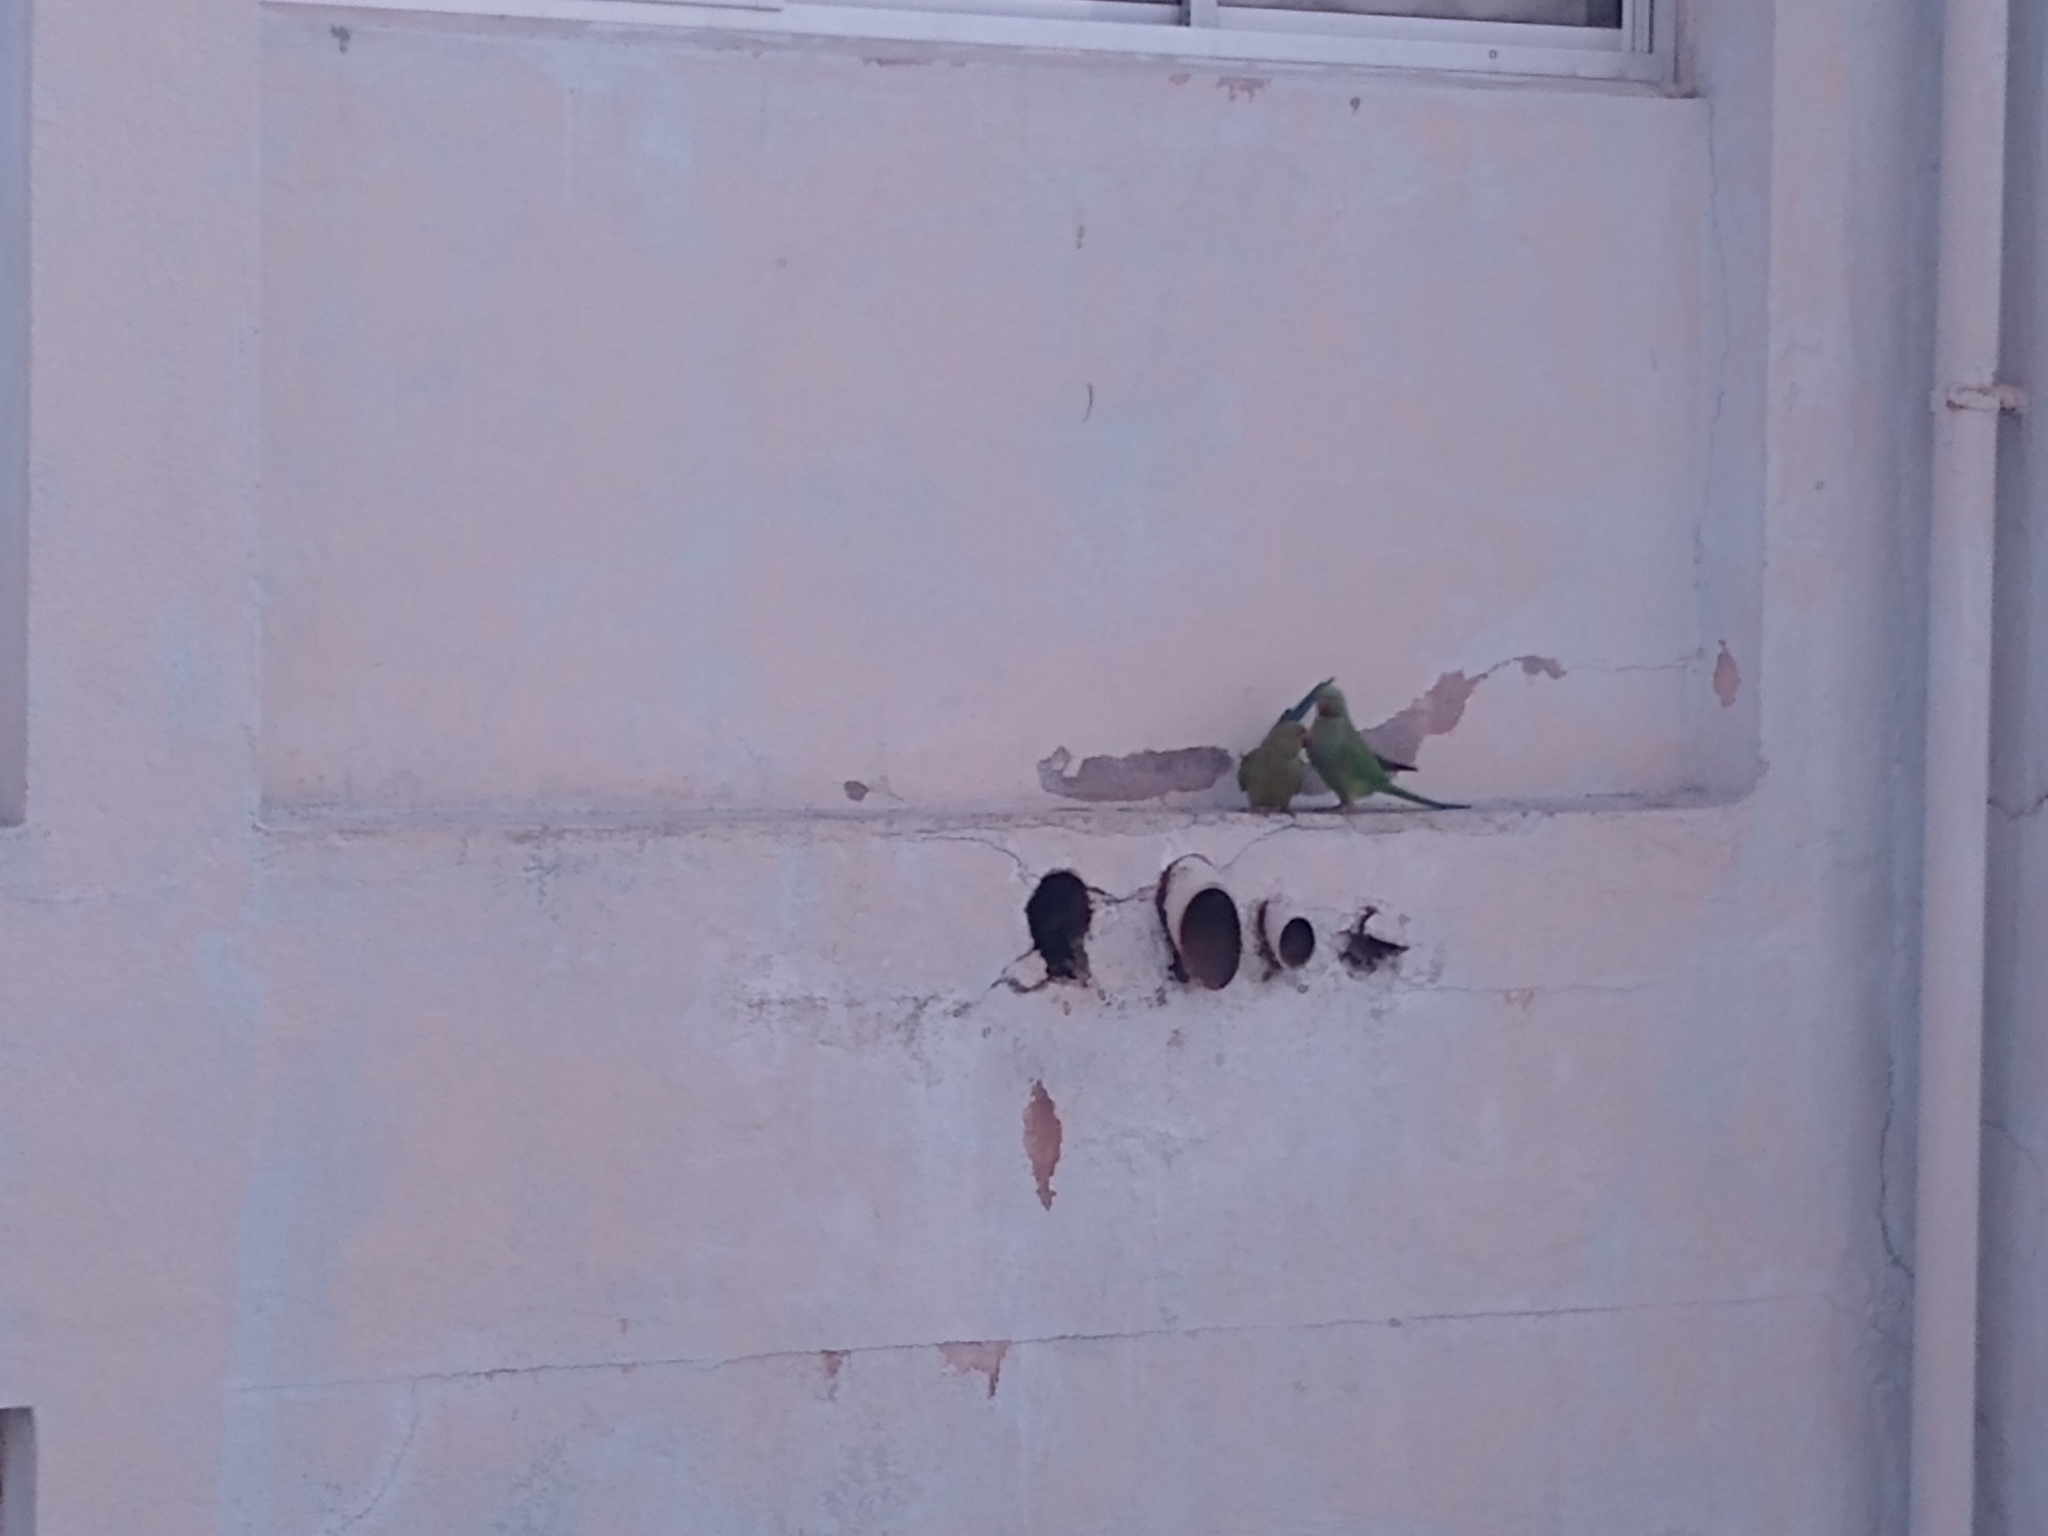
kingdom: Animalia
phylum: Chordata
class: Aves
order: Psittaciformes
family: Psittacidae
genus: Psittacula
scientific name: Psittacula krameri
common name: Rose-ringed parakeet
